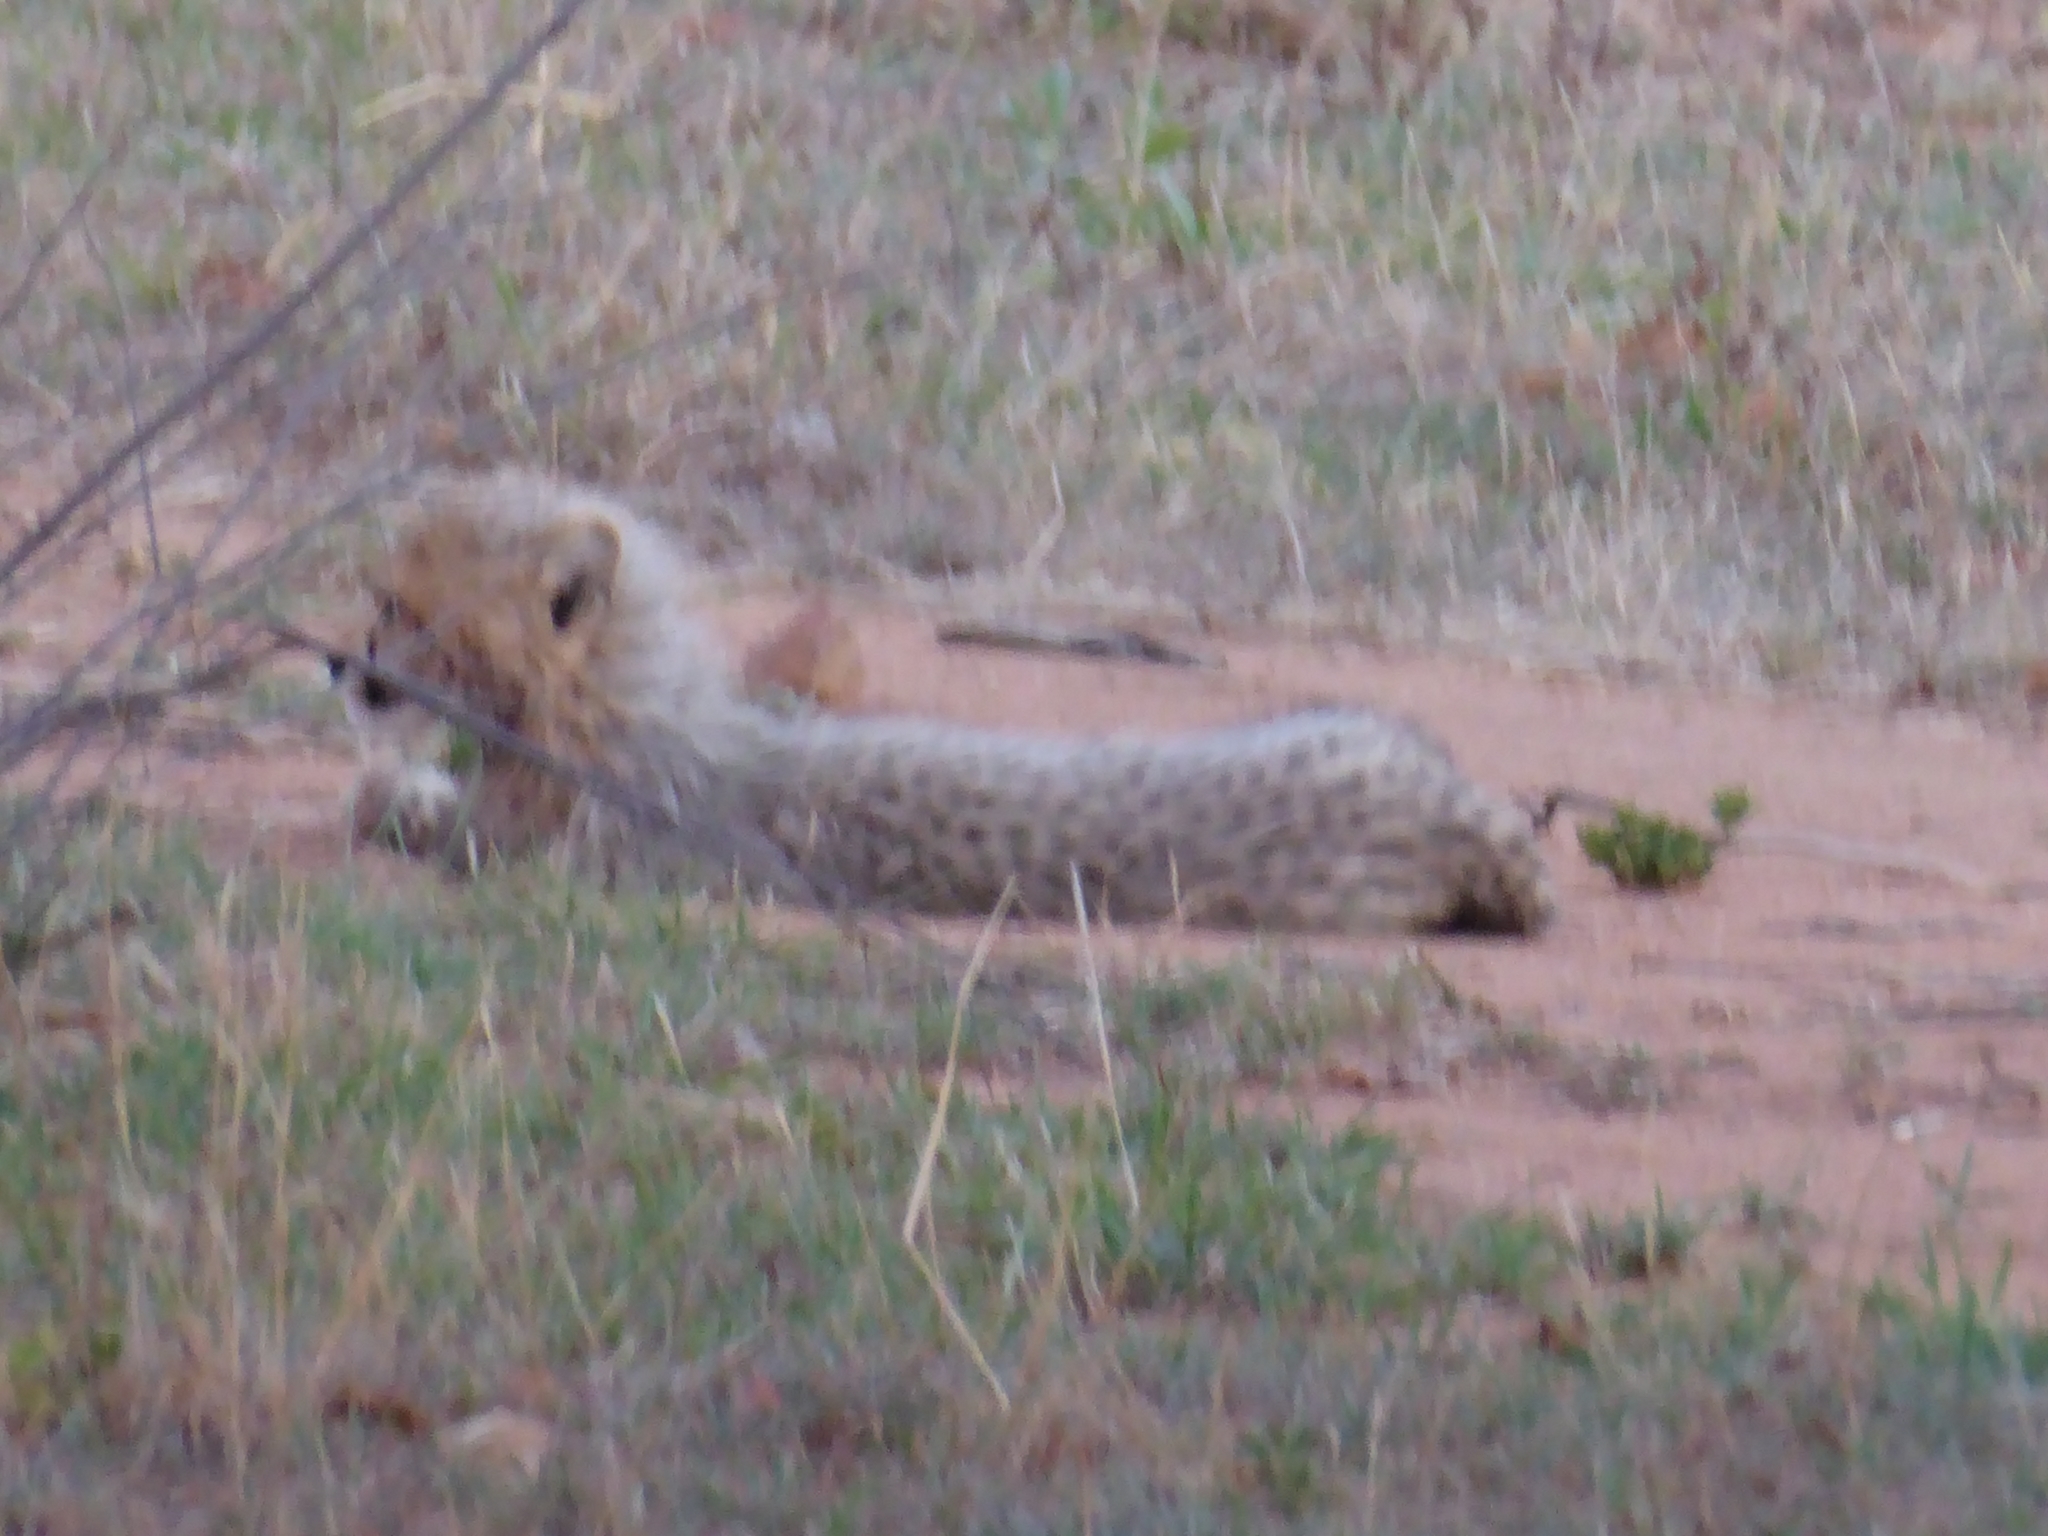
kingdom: Animalia
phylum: Chordata
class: Mammalia
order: Carnivora
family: Felidae
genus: Acinonyx
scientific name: Acinonyx jubatus
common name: Cheetah
